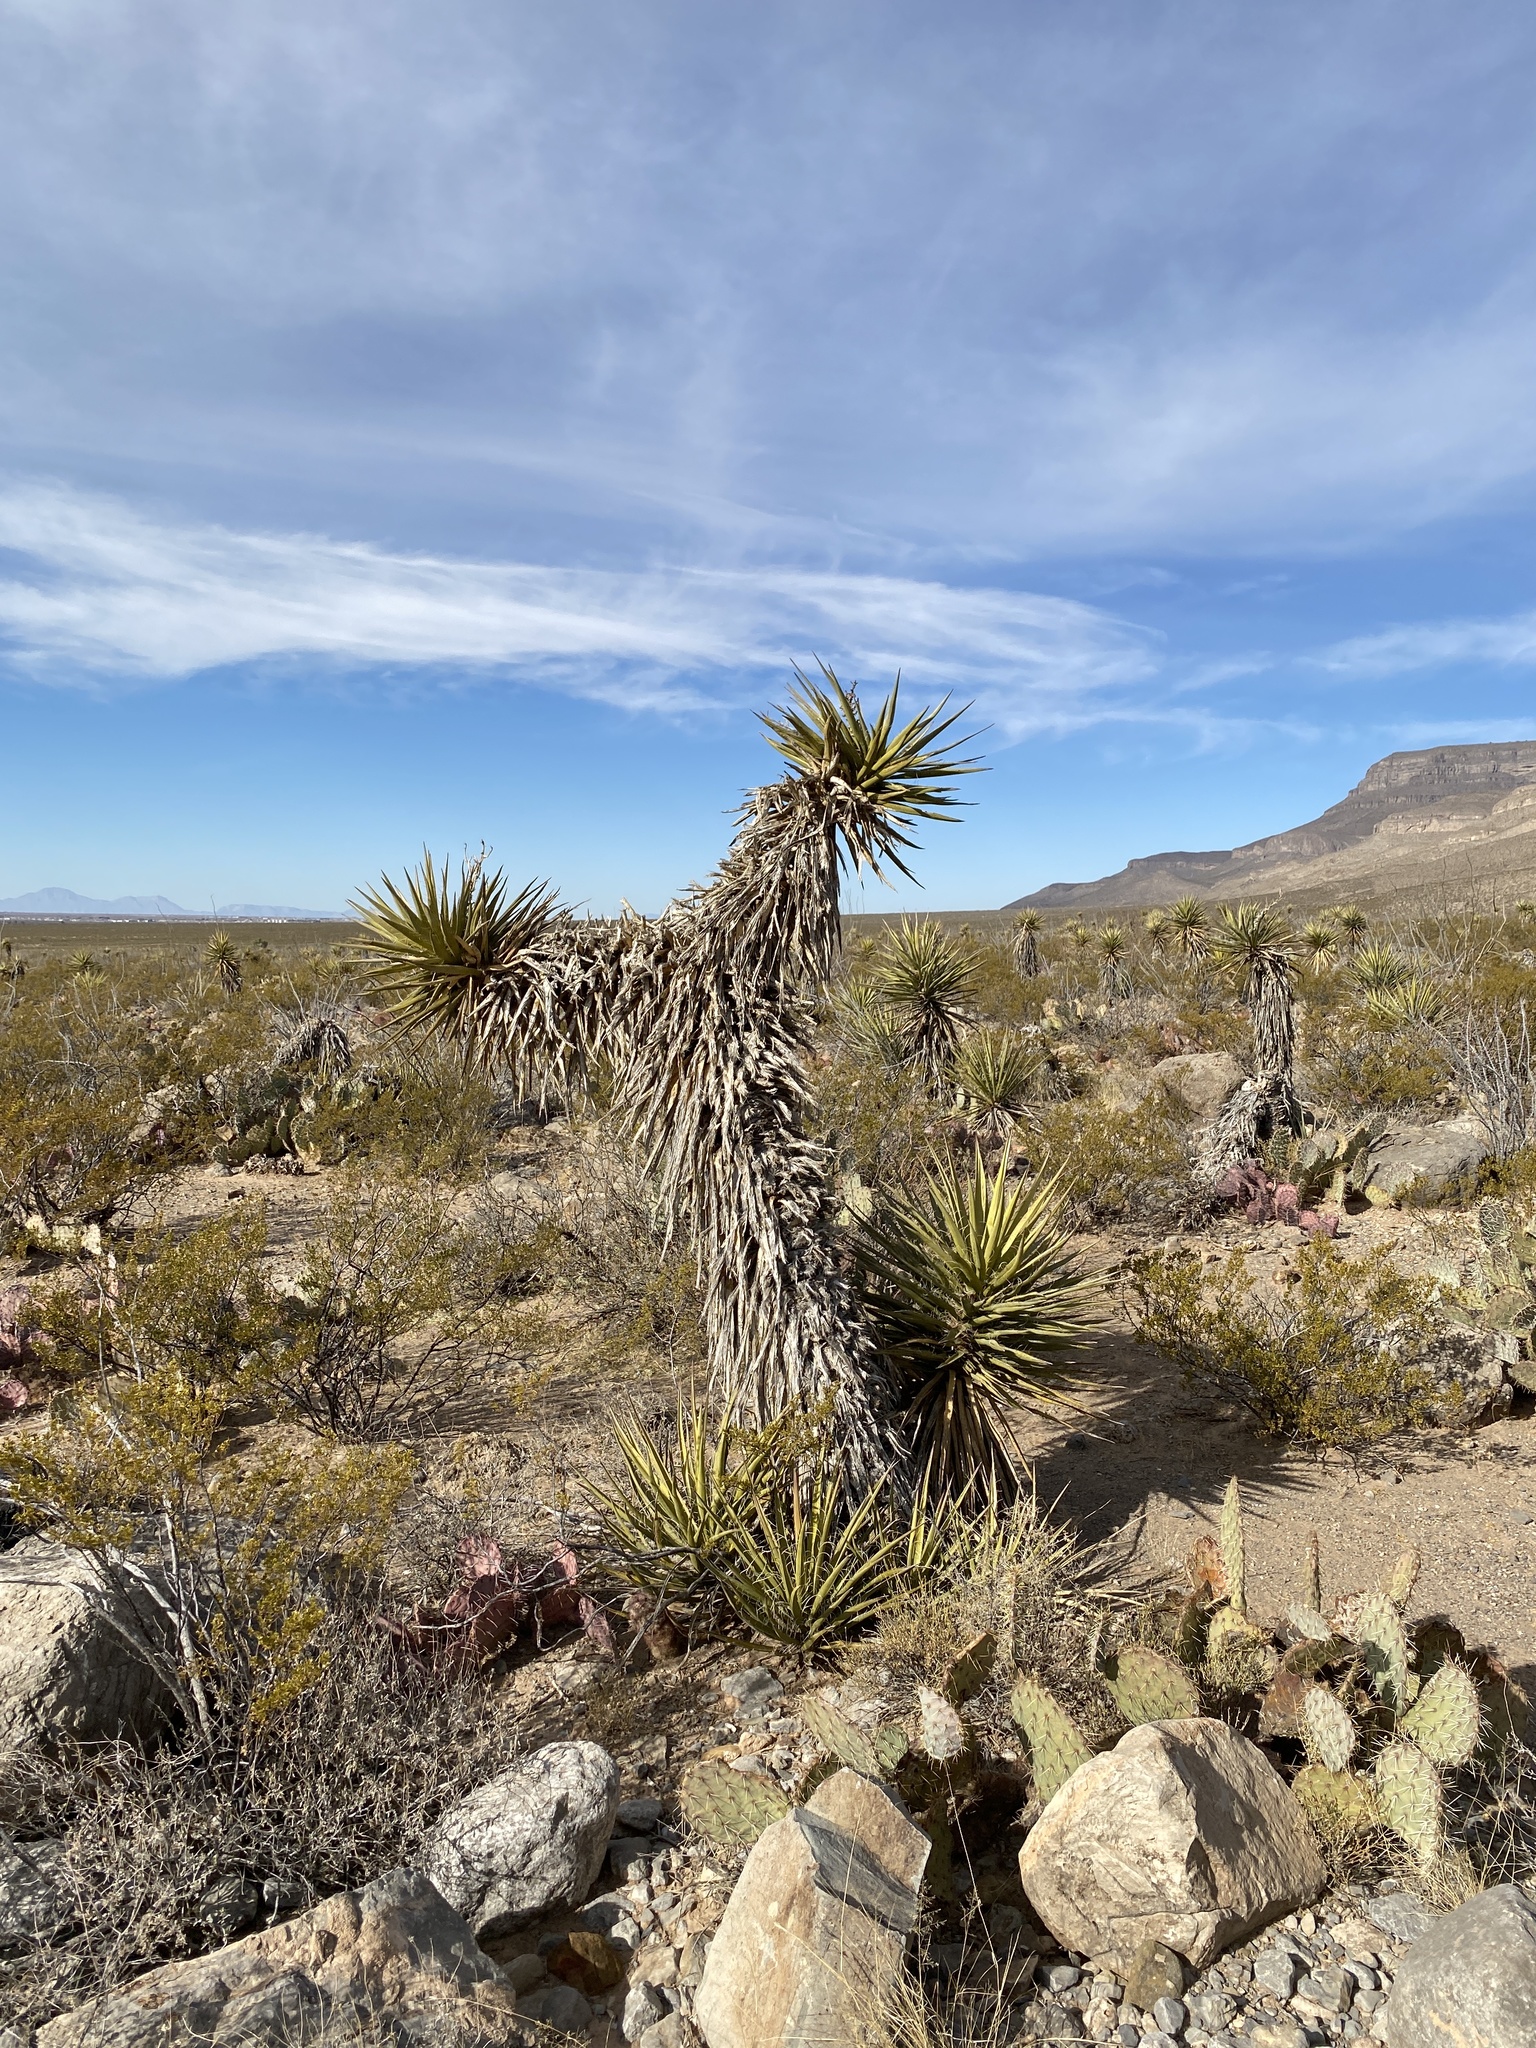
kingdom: Plantae
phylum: Tracheophyta
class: Liliopsida
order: Asparagales
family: Asparagaceae
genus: Yucca
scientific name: Yucca treculiana
